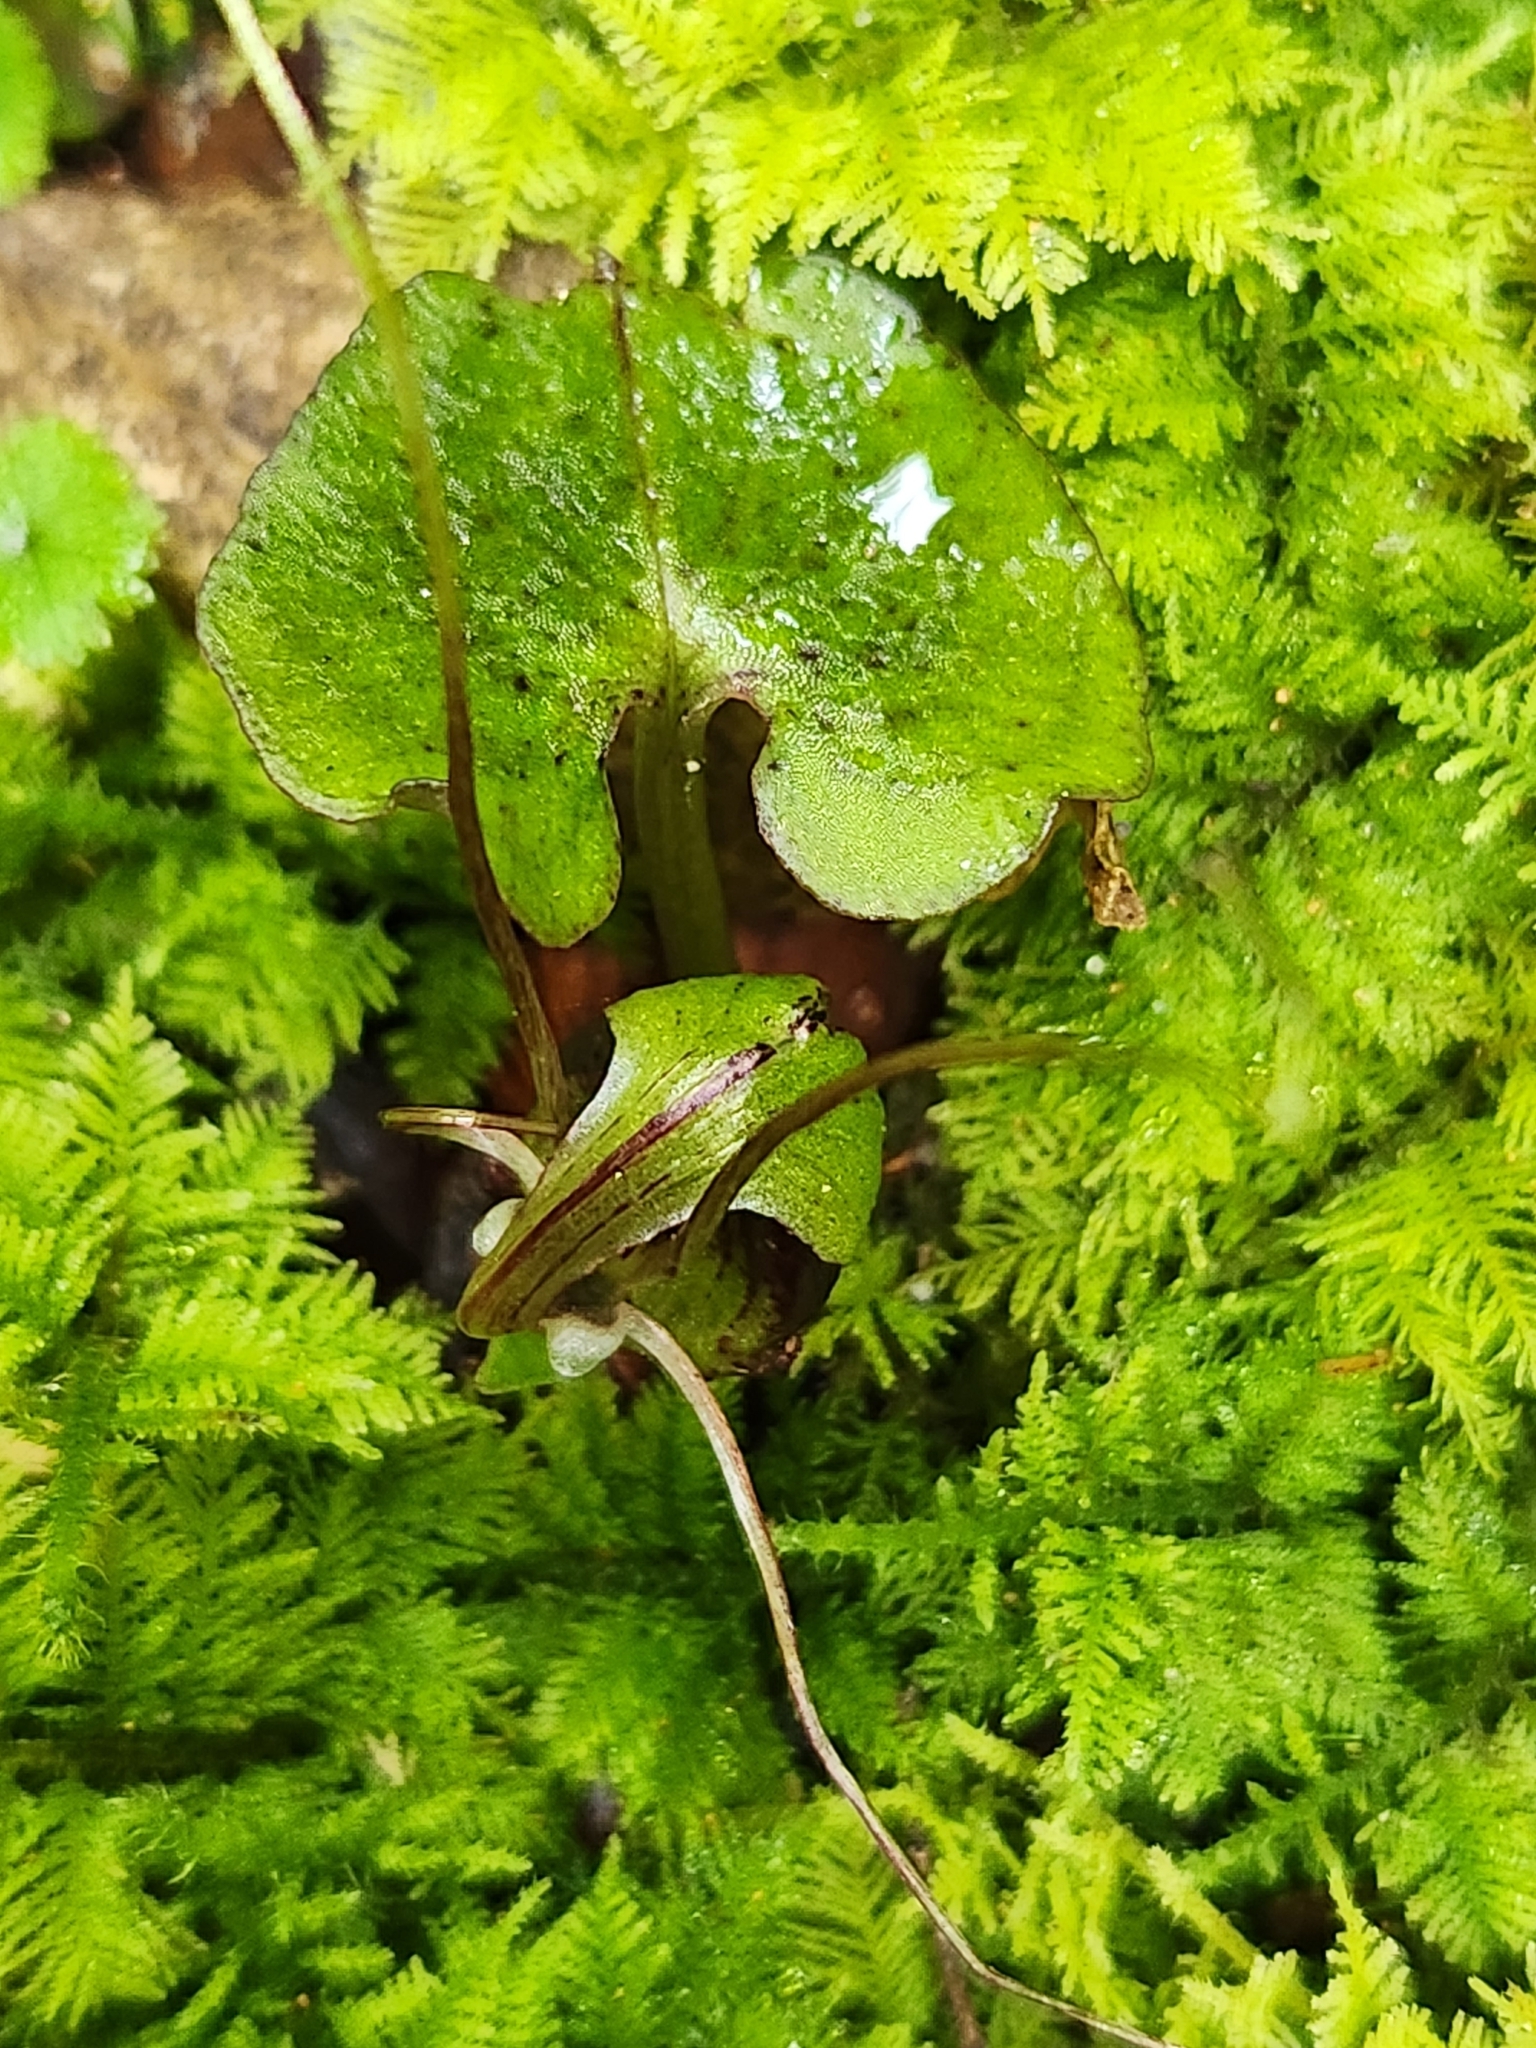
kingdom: Plantae
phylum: Tracheophyta
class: Liliopsida
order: Asparagales
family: Orchidaceae
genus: Corybas
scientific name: Corybas vitreus
